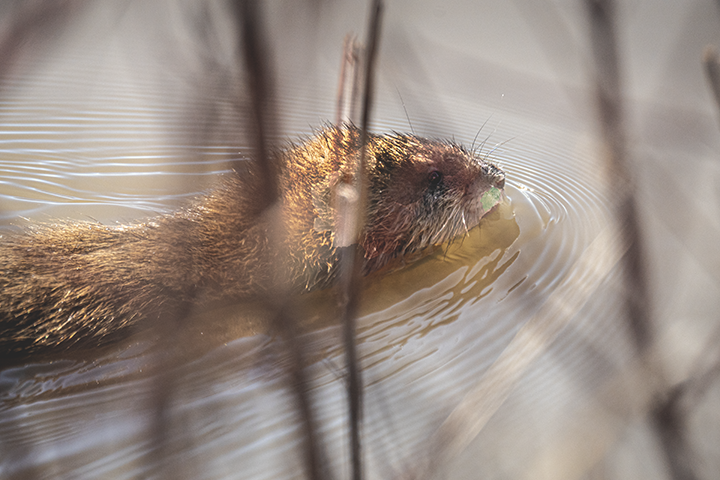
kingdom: Animalia
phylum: Chordata
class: Mammalia
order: Rodentia
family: Cricetidae
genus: Ondatra
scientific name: Ondatra zibethicus
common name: Muskrat
